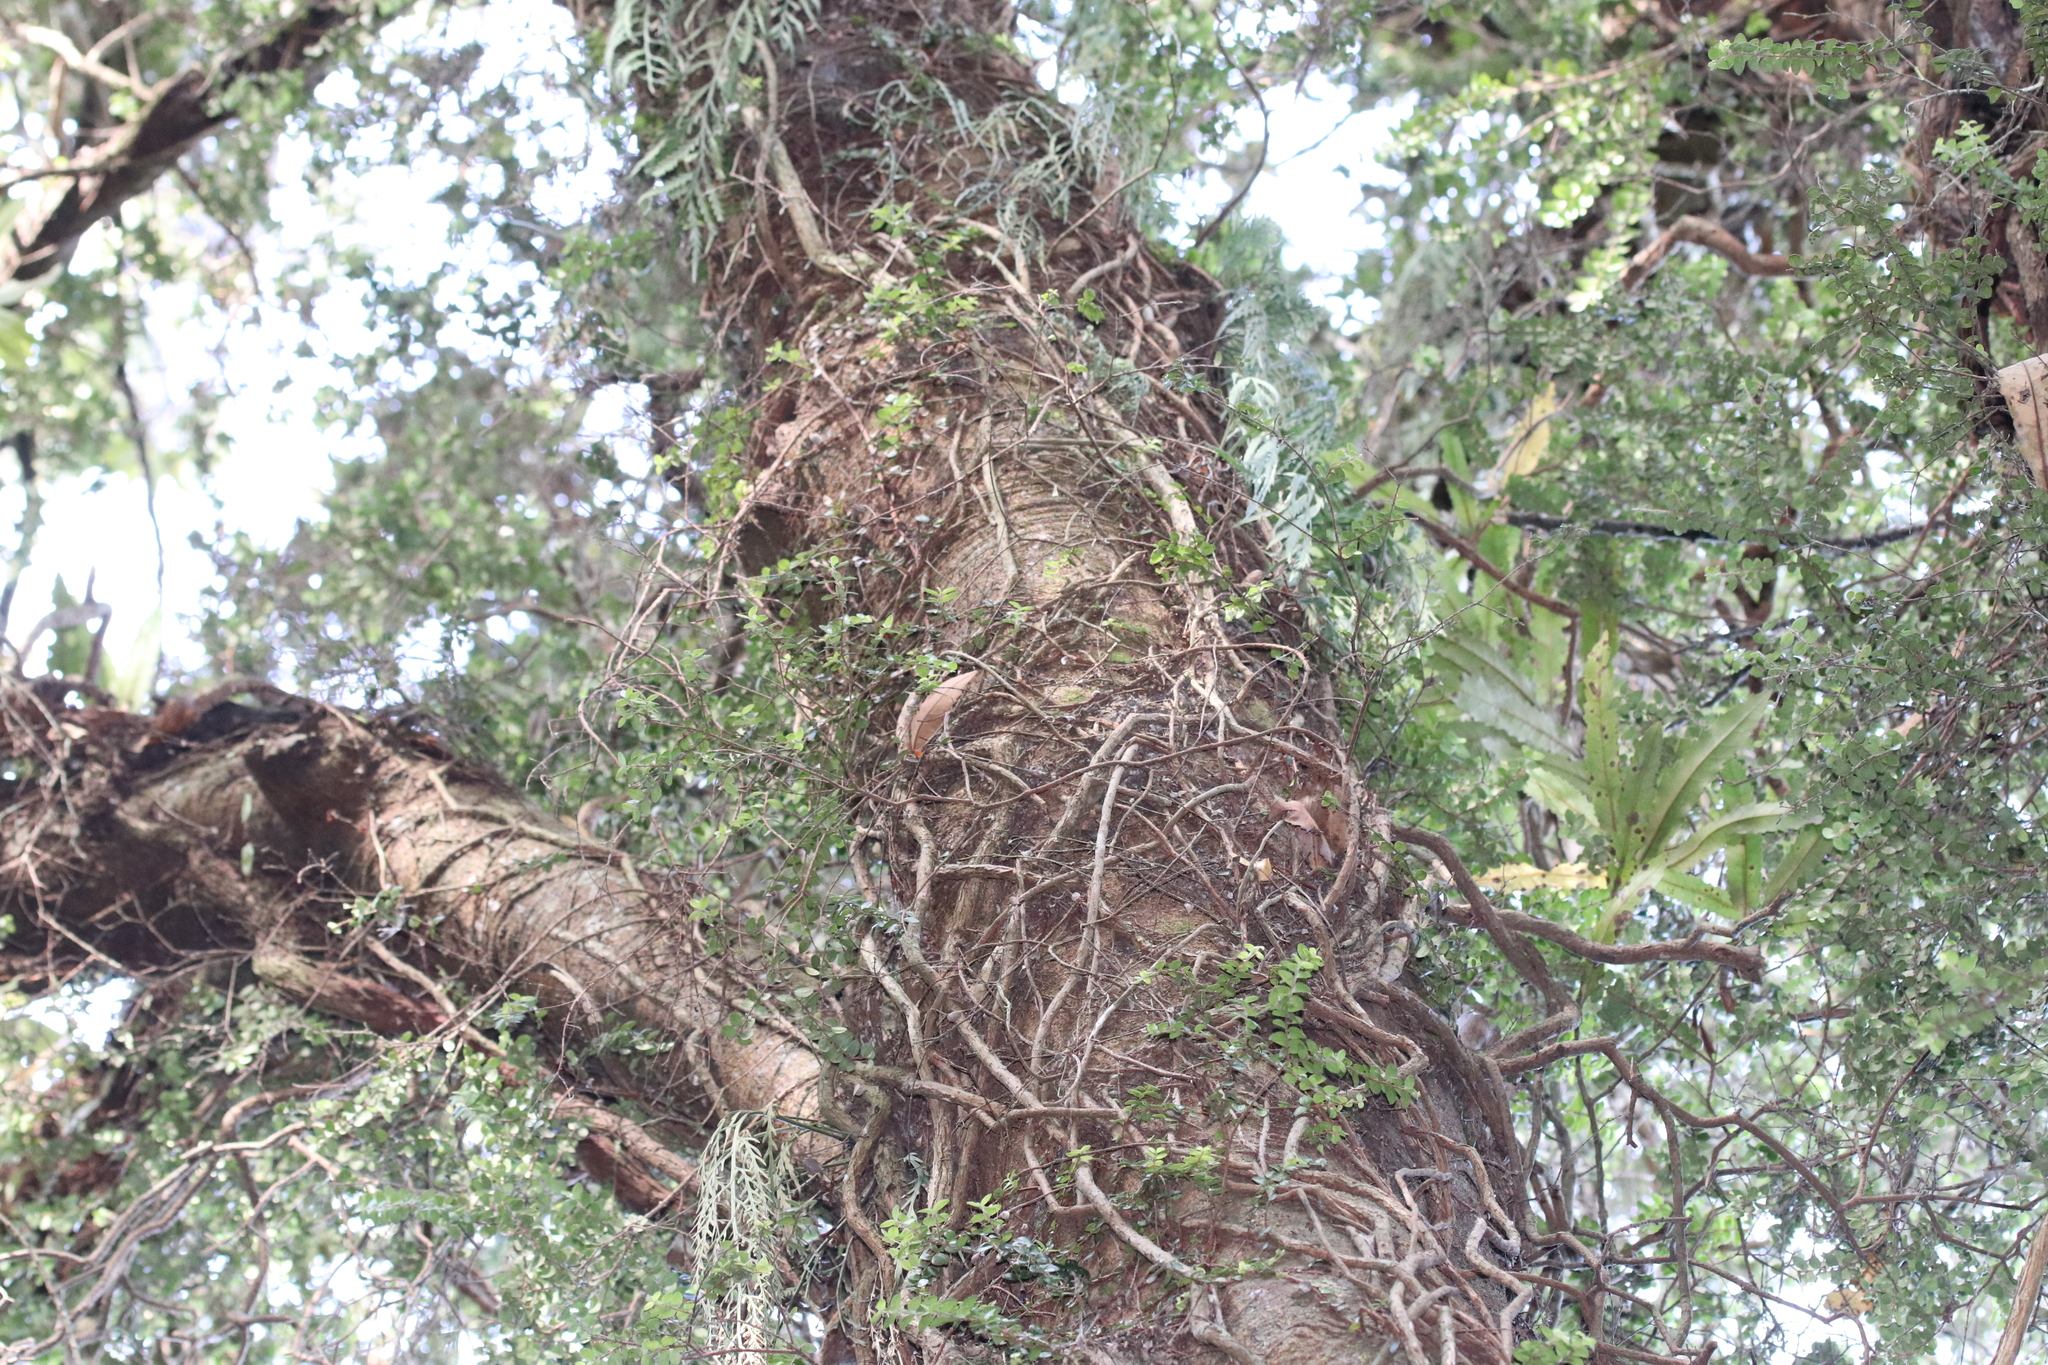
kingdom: Plantae
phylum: Tracheophyta
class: Magnoliopsida
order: Myrtales
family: Myrtaceae
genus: Metrosideros
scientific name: Metrosideros diffusa
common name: Small ratavine
